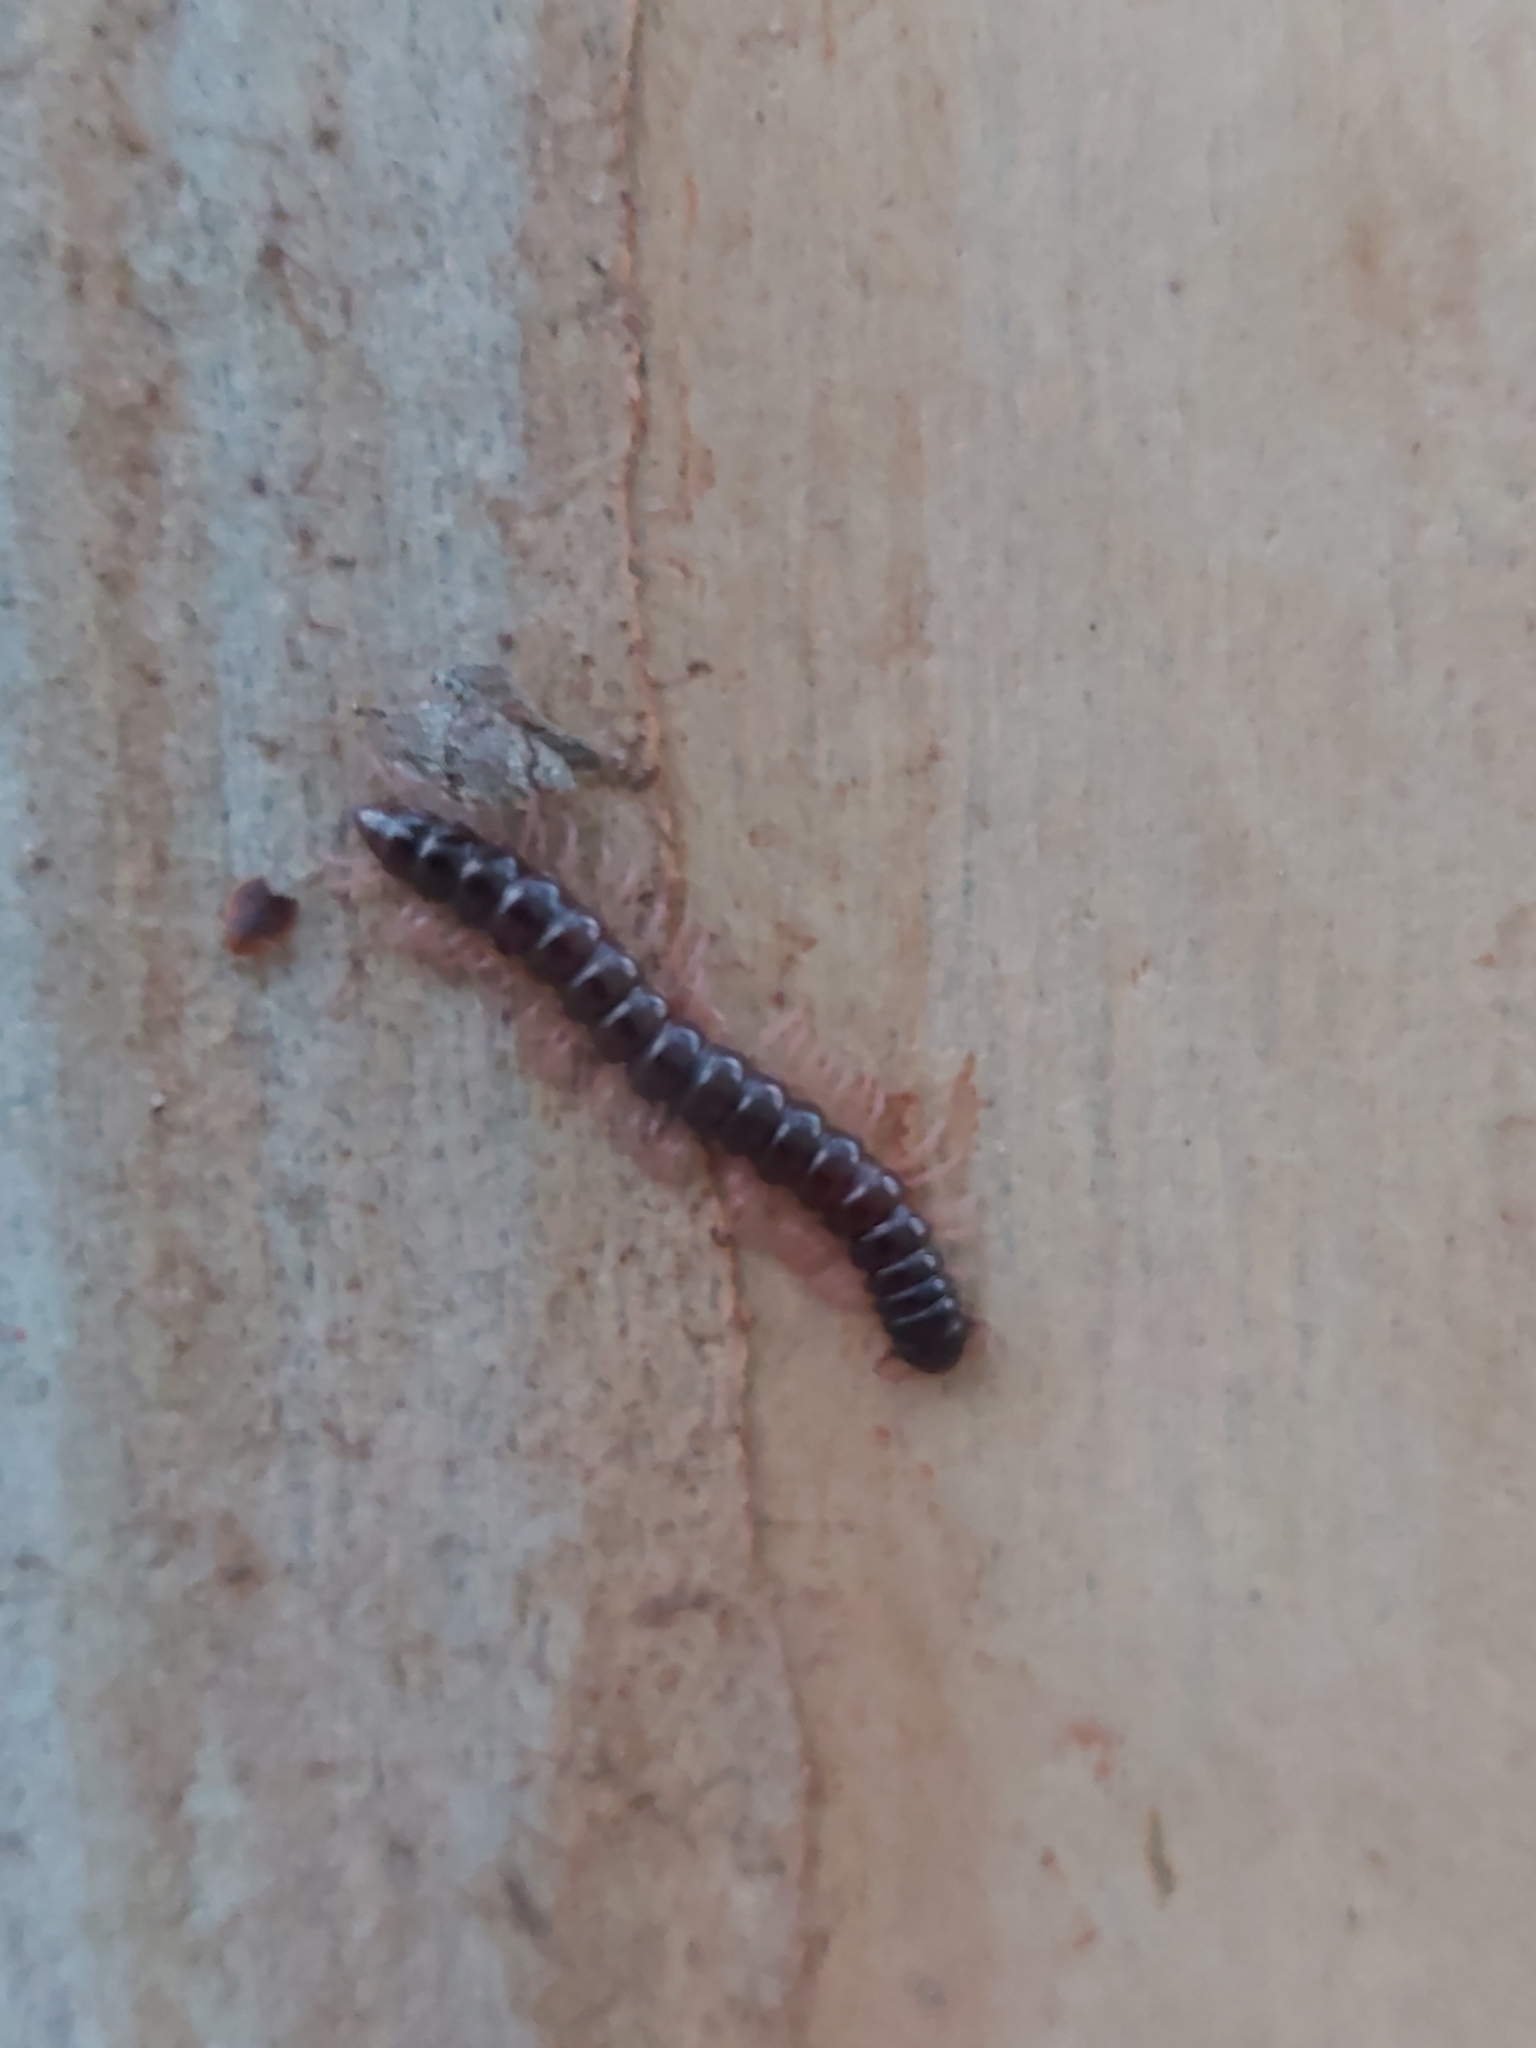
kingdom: Animalia
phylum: Arthropoda
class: Diplopoda
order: Polydesmida
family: Paradoxosomatidae
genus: Heterocladosoma
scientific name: Heterocladosoma
